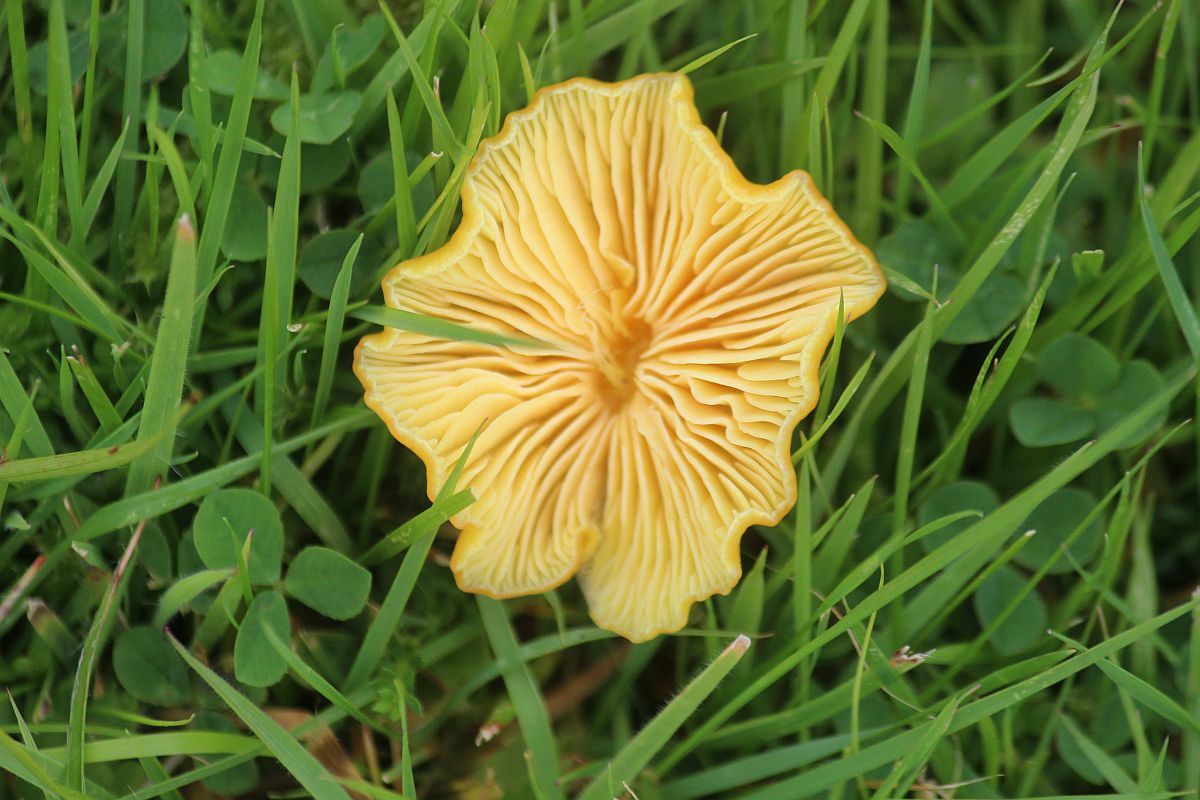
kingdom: Fungi
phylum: Basidiomycota
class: Agaricomycetes
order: Agaricales
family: Hygrophoraceae
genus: Hygrocybe
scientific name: Hygrocybe chlorophana
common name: Golden waxcap
